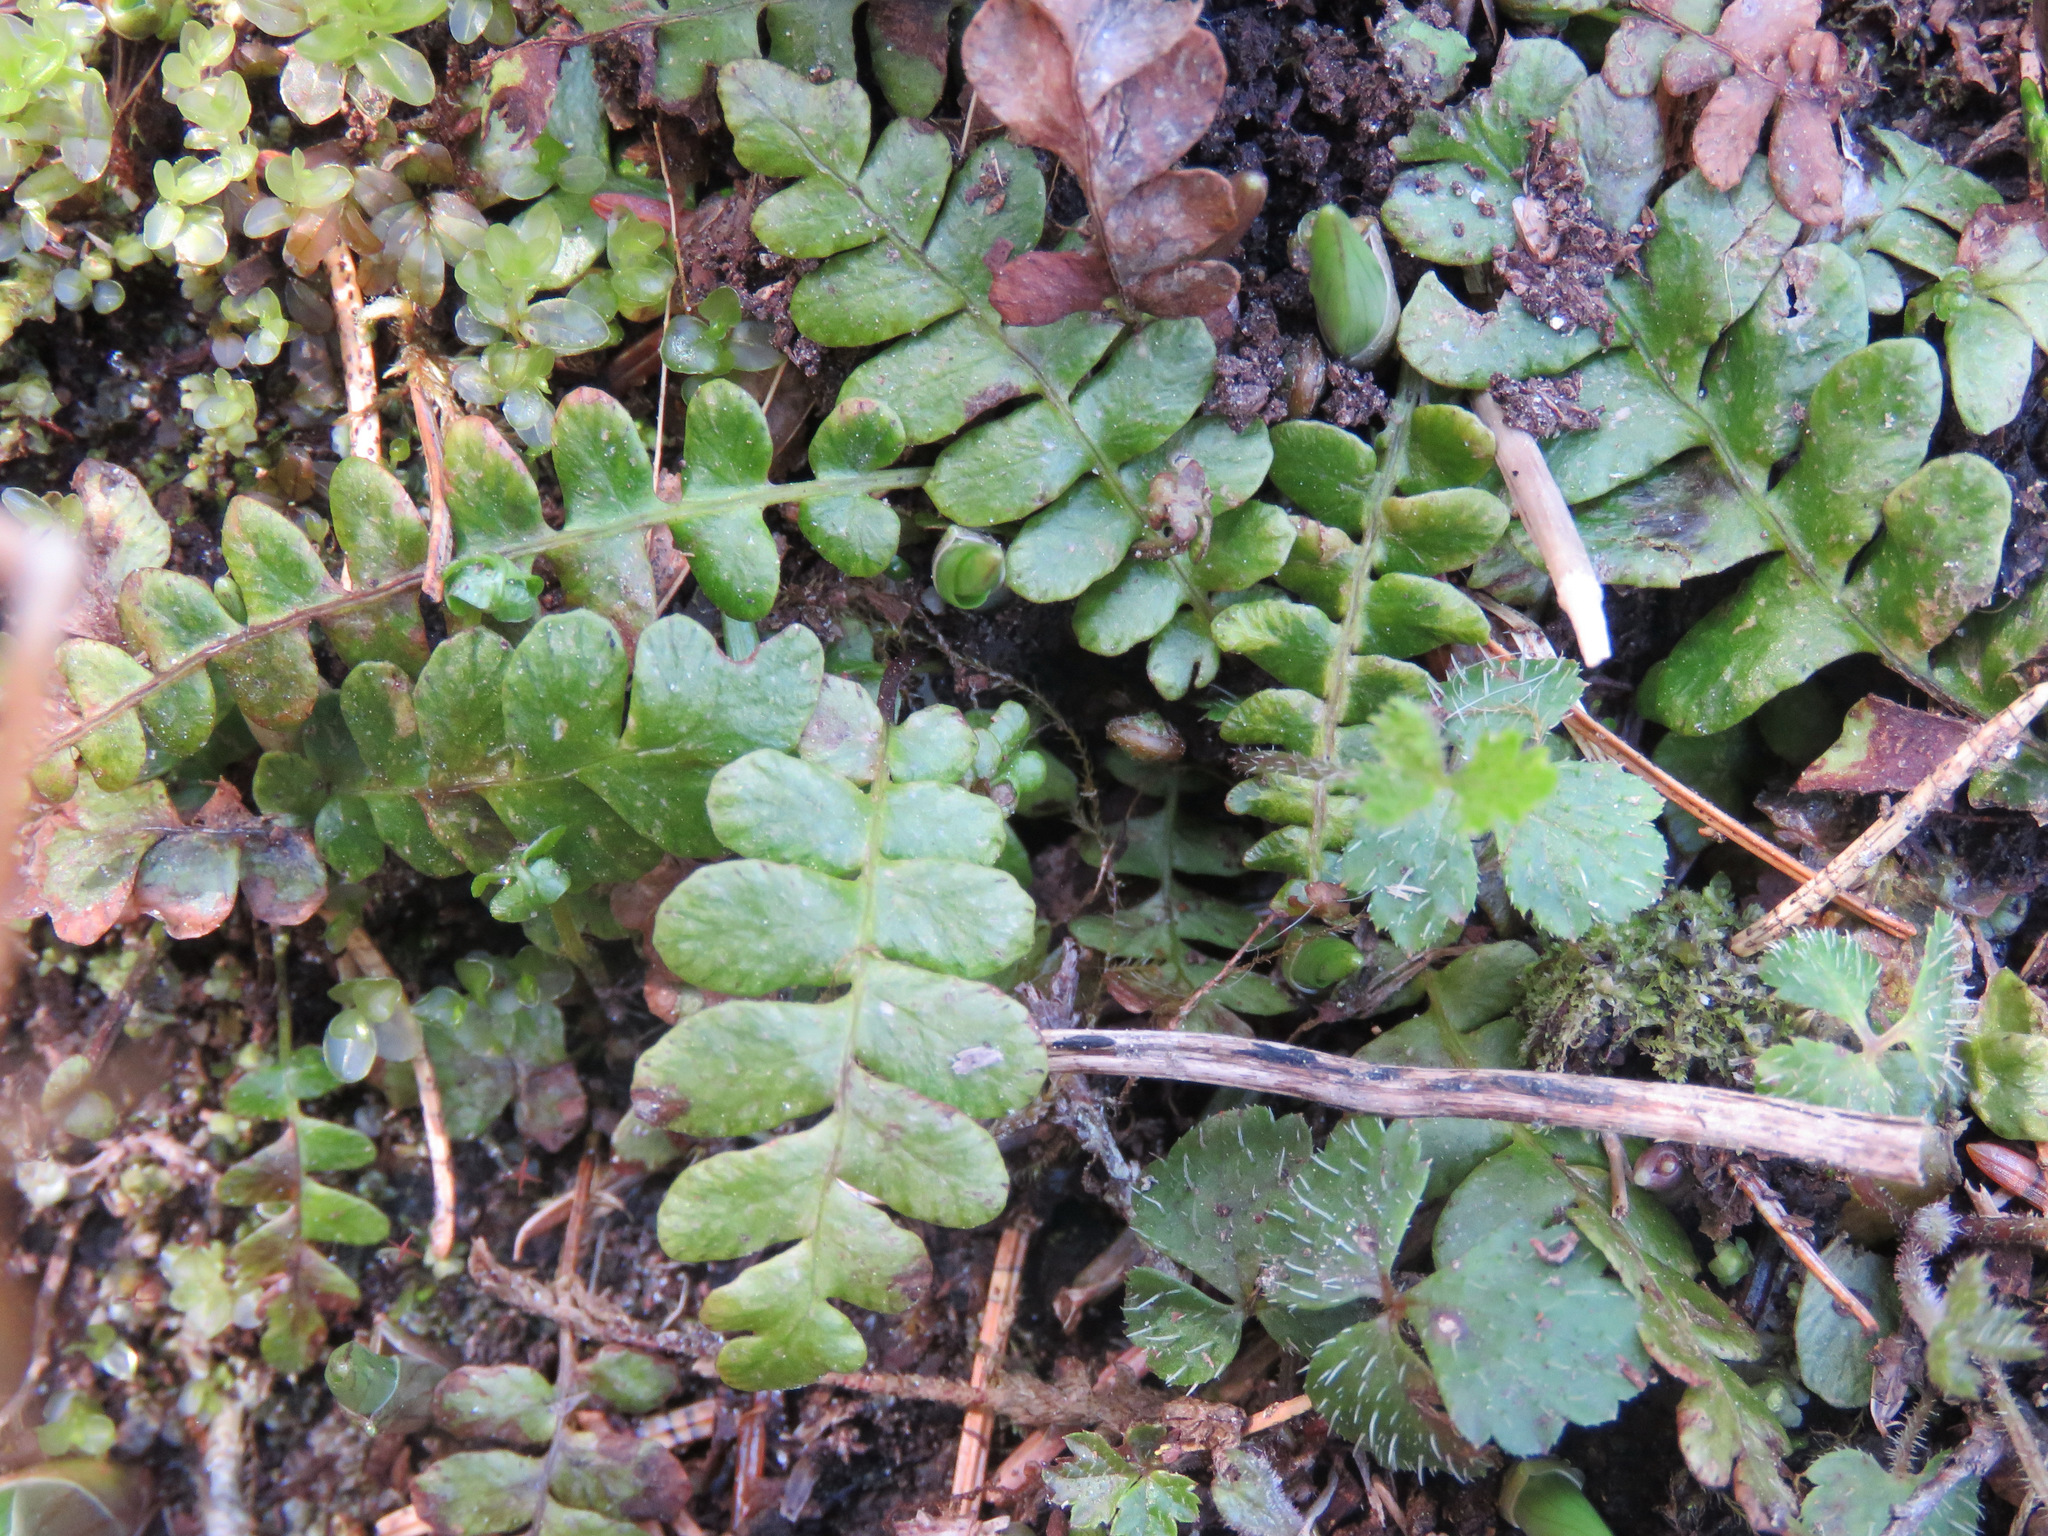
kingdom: Plantae
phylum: Tracheophyta
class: Polypodiopsida
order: Polypodiales
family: Blechnaceae
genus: Struthiopteris
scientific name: Struthiopteris spicant
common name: Deer fern
